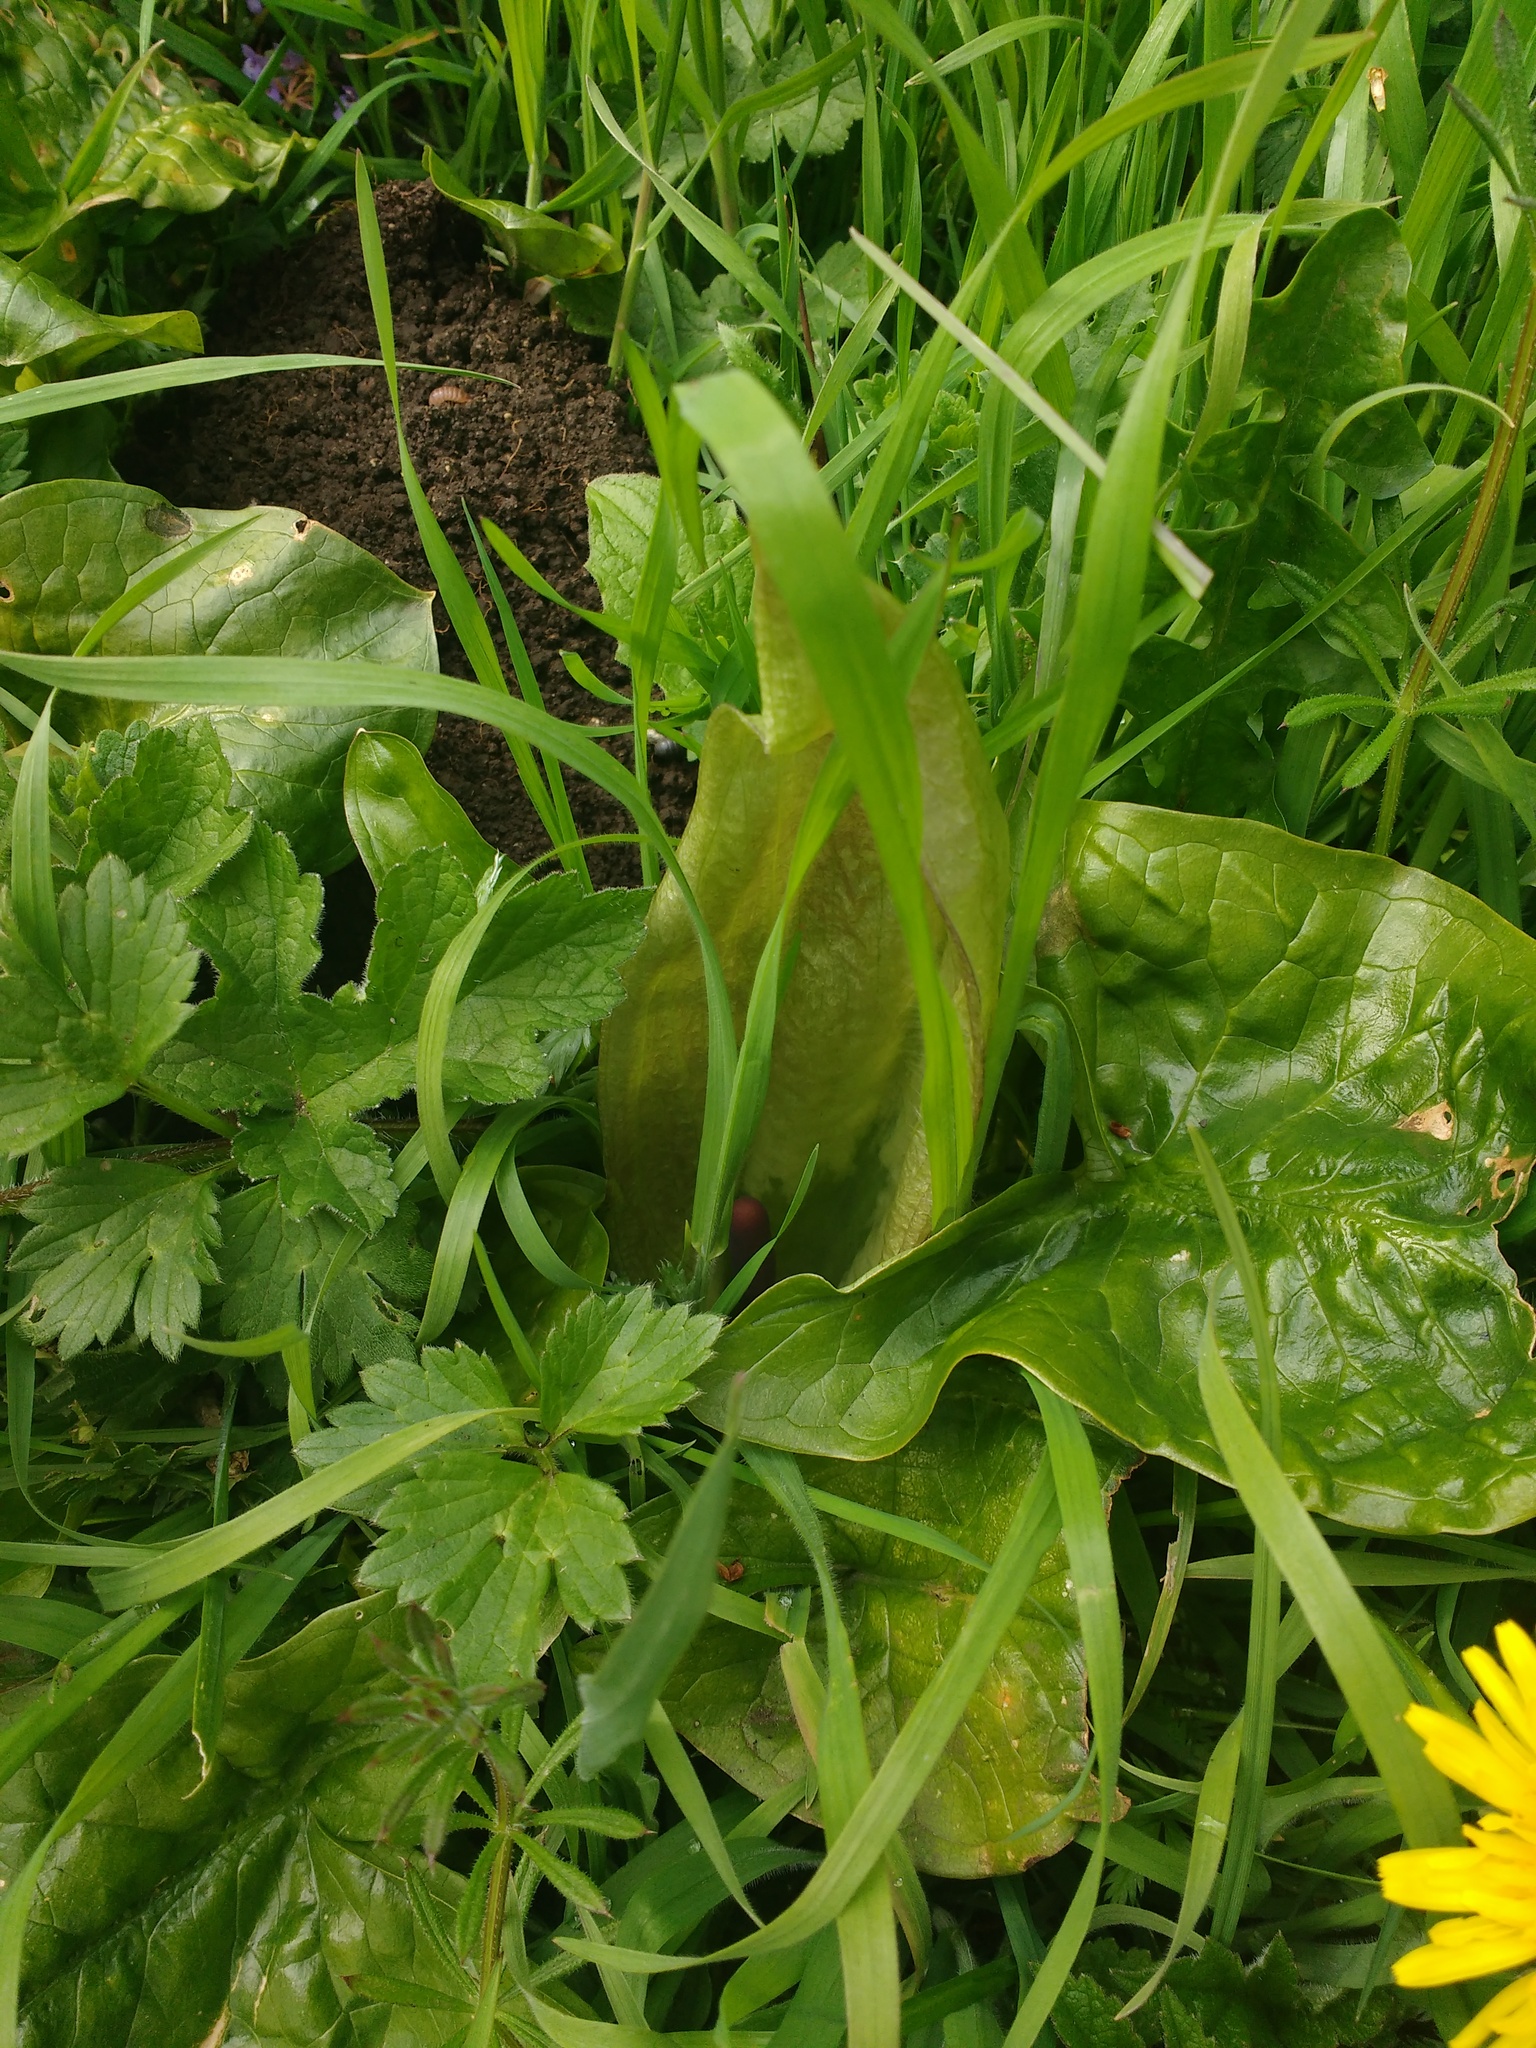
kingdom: Plantae
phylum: Tracheophyta
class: Liliopsida
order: Alismatales
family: Araceae
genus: Arum
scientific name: Arum maculatum
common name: Lords-and-ladies
